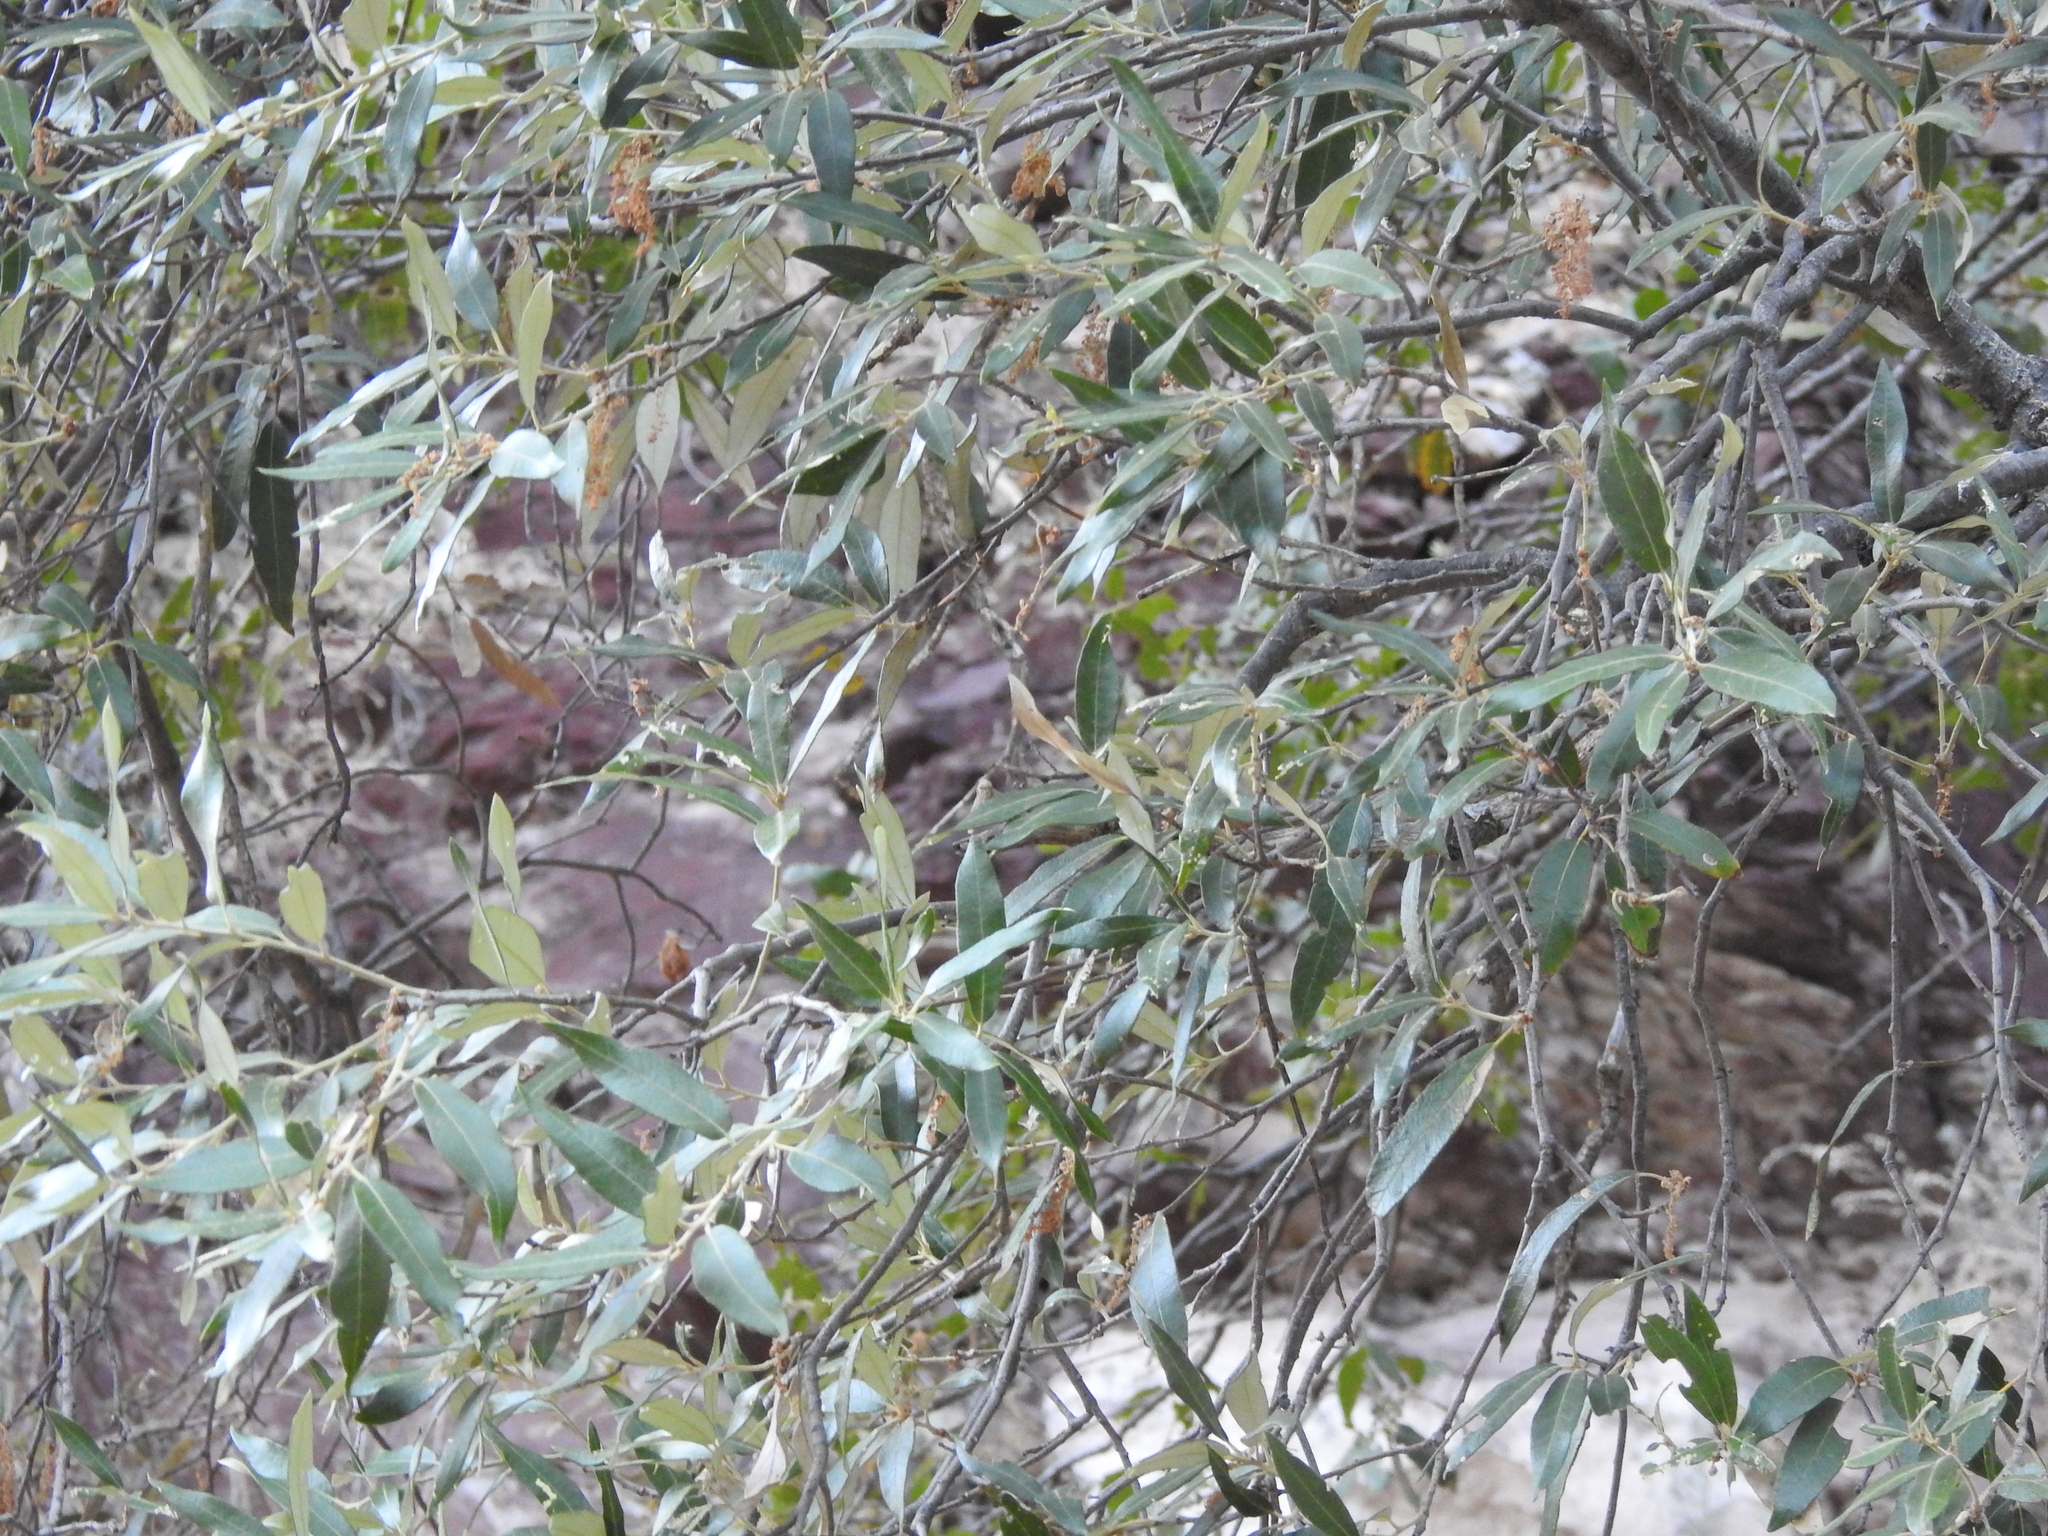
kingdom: Plantae
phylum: Tracheophyta
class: Magnoliopsida
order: Fagales
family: Fagaceae
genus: Quercus
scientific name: Quercus hypoleucoides
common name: Silverleaf oak
